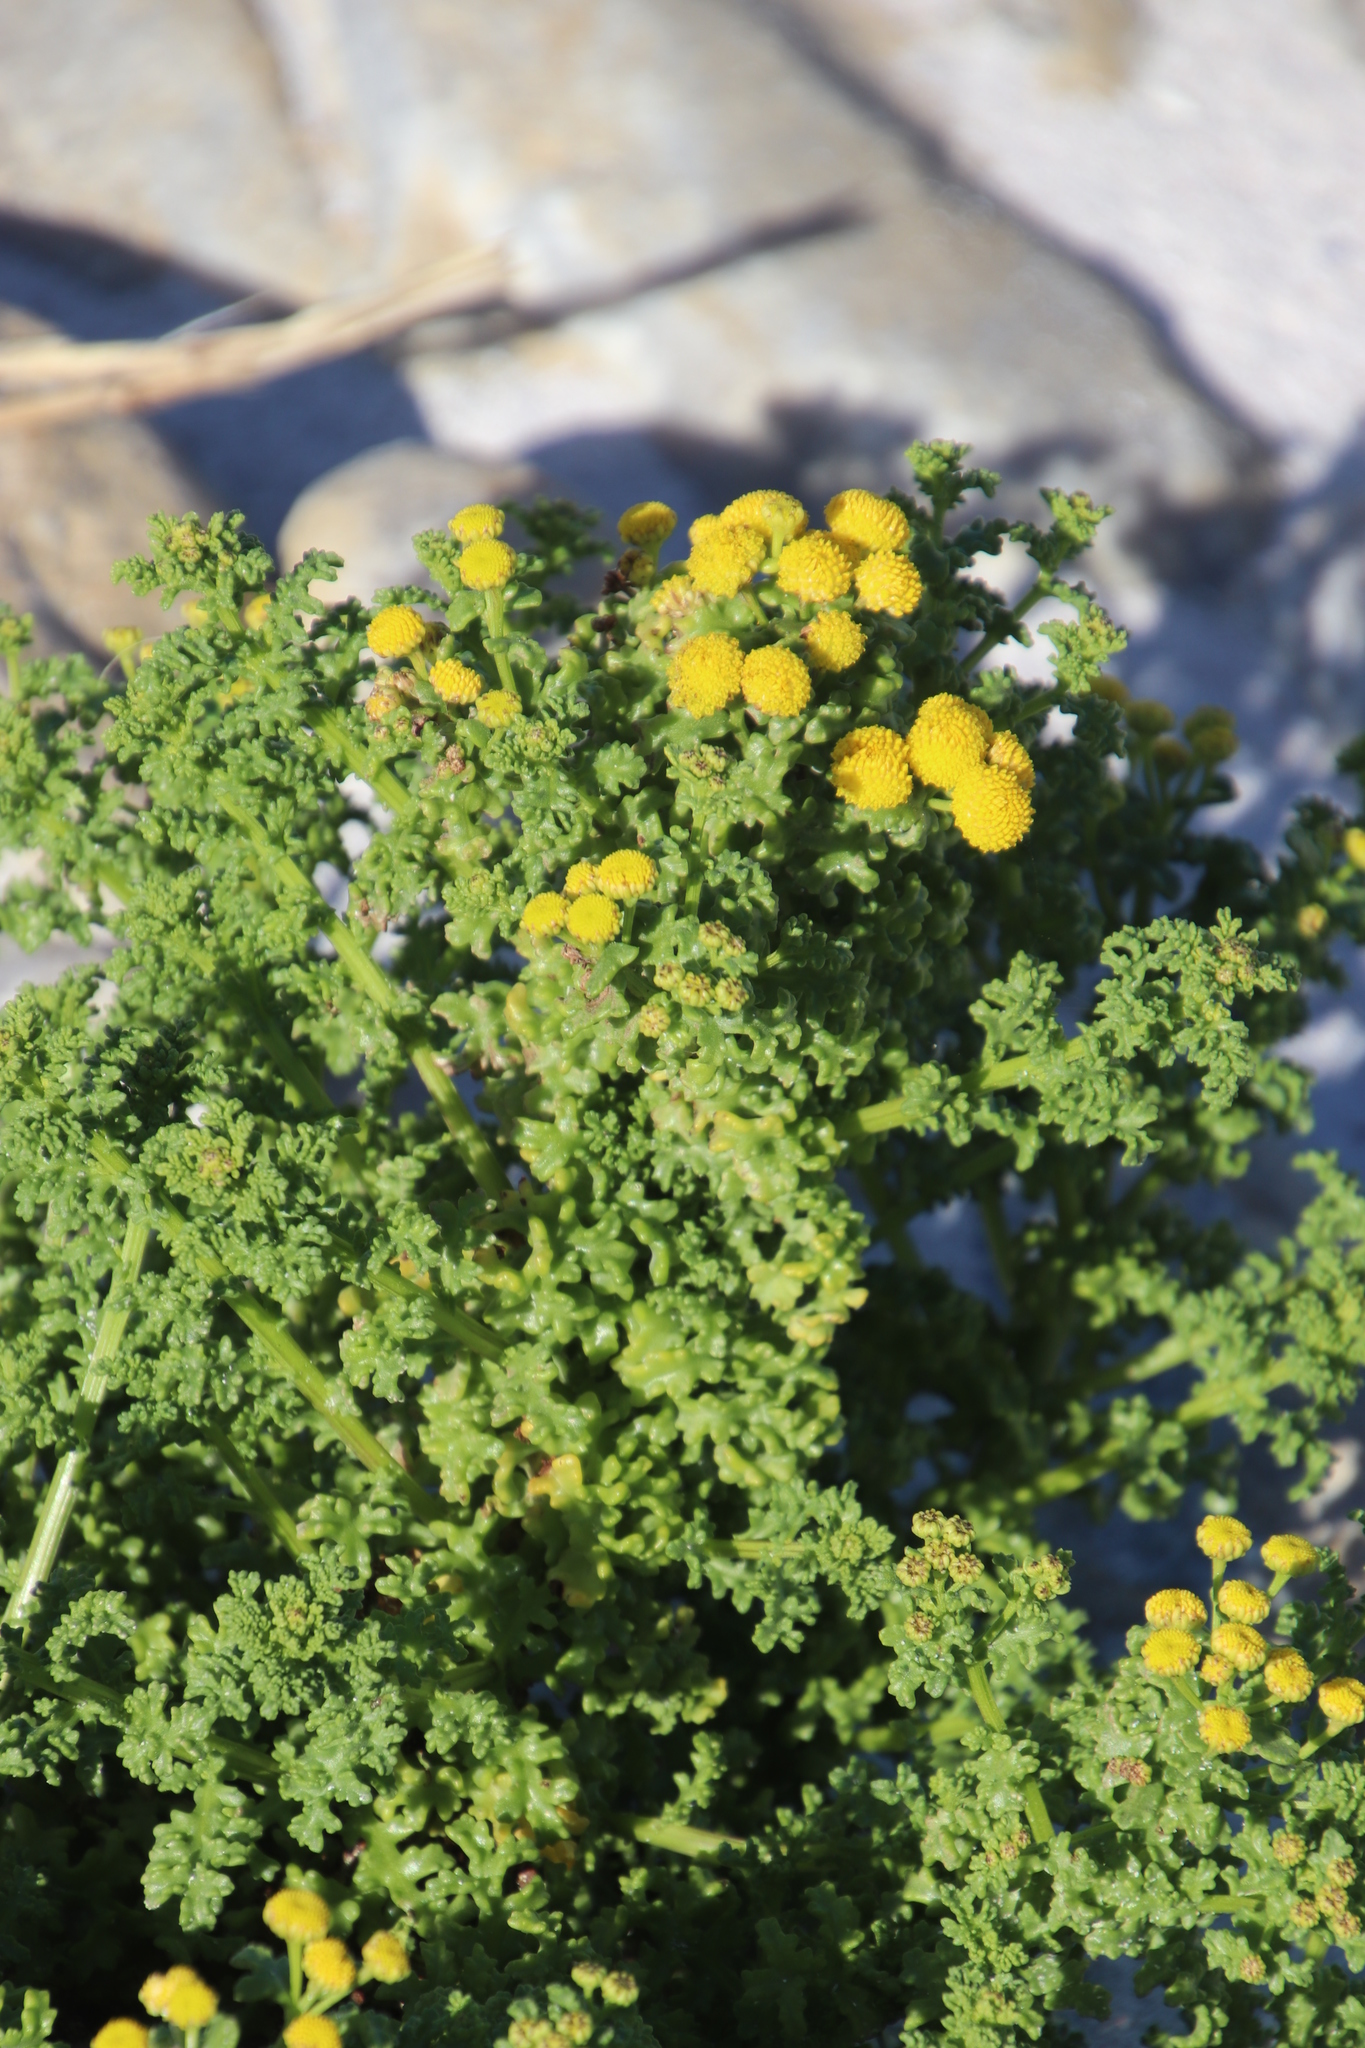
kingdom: Plantae
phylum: Tracheophyta
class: Magnoliopsida
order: Asterales
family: Asteraceae
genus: Oncosiphon
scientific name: Oncosiphon sabulosus
